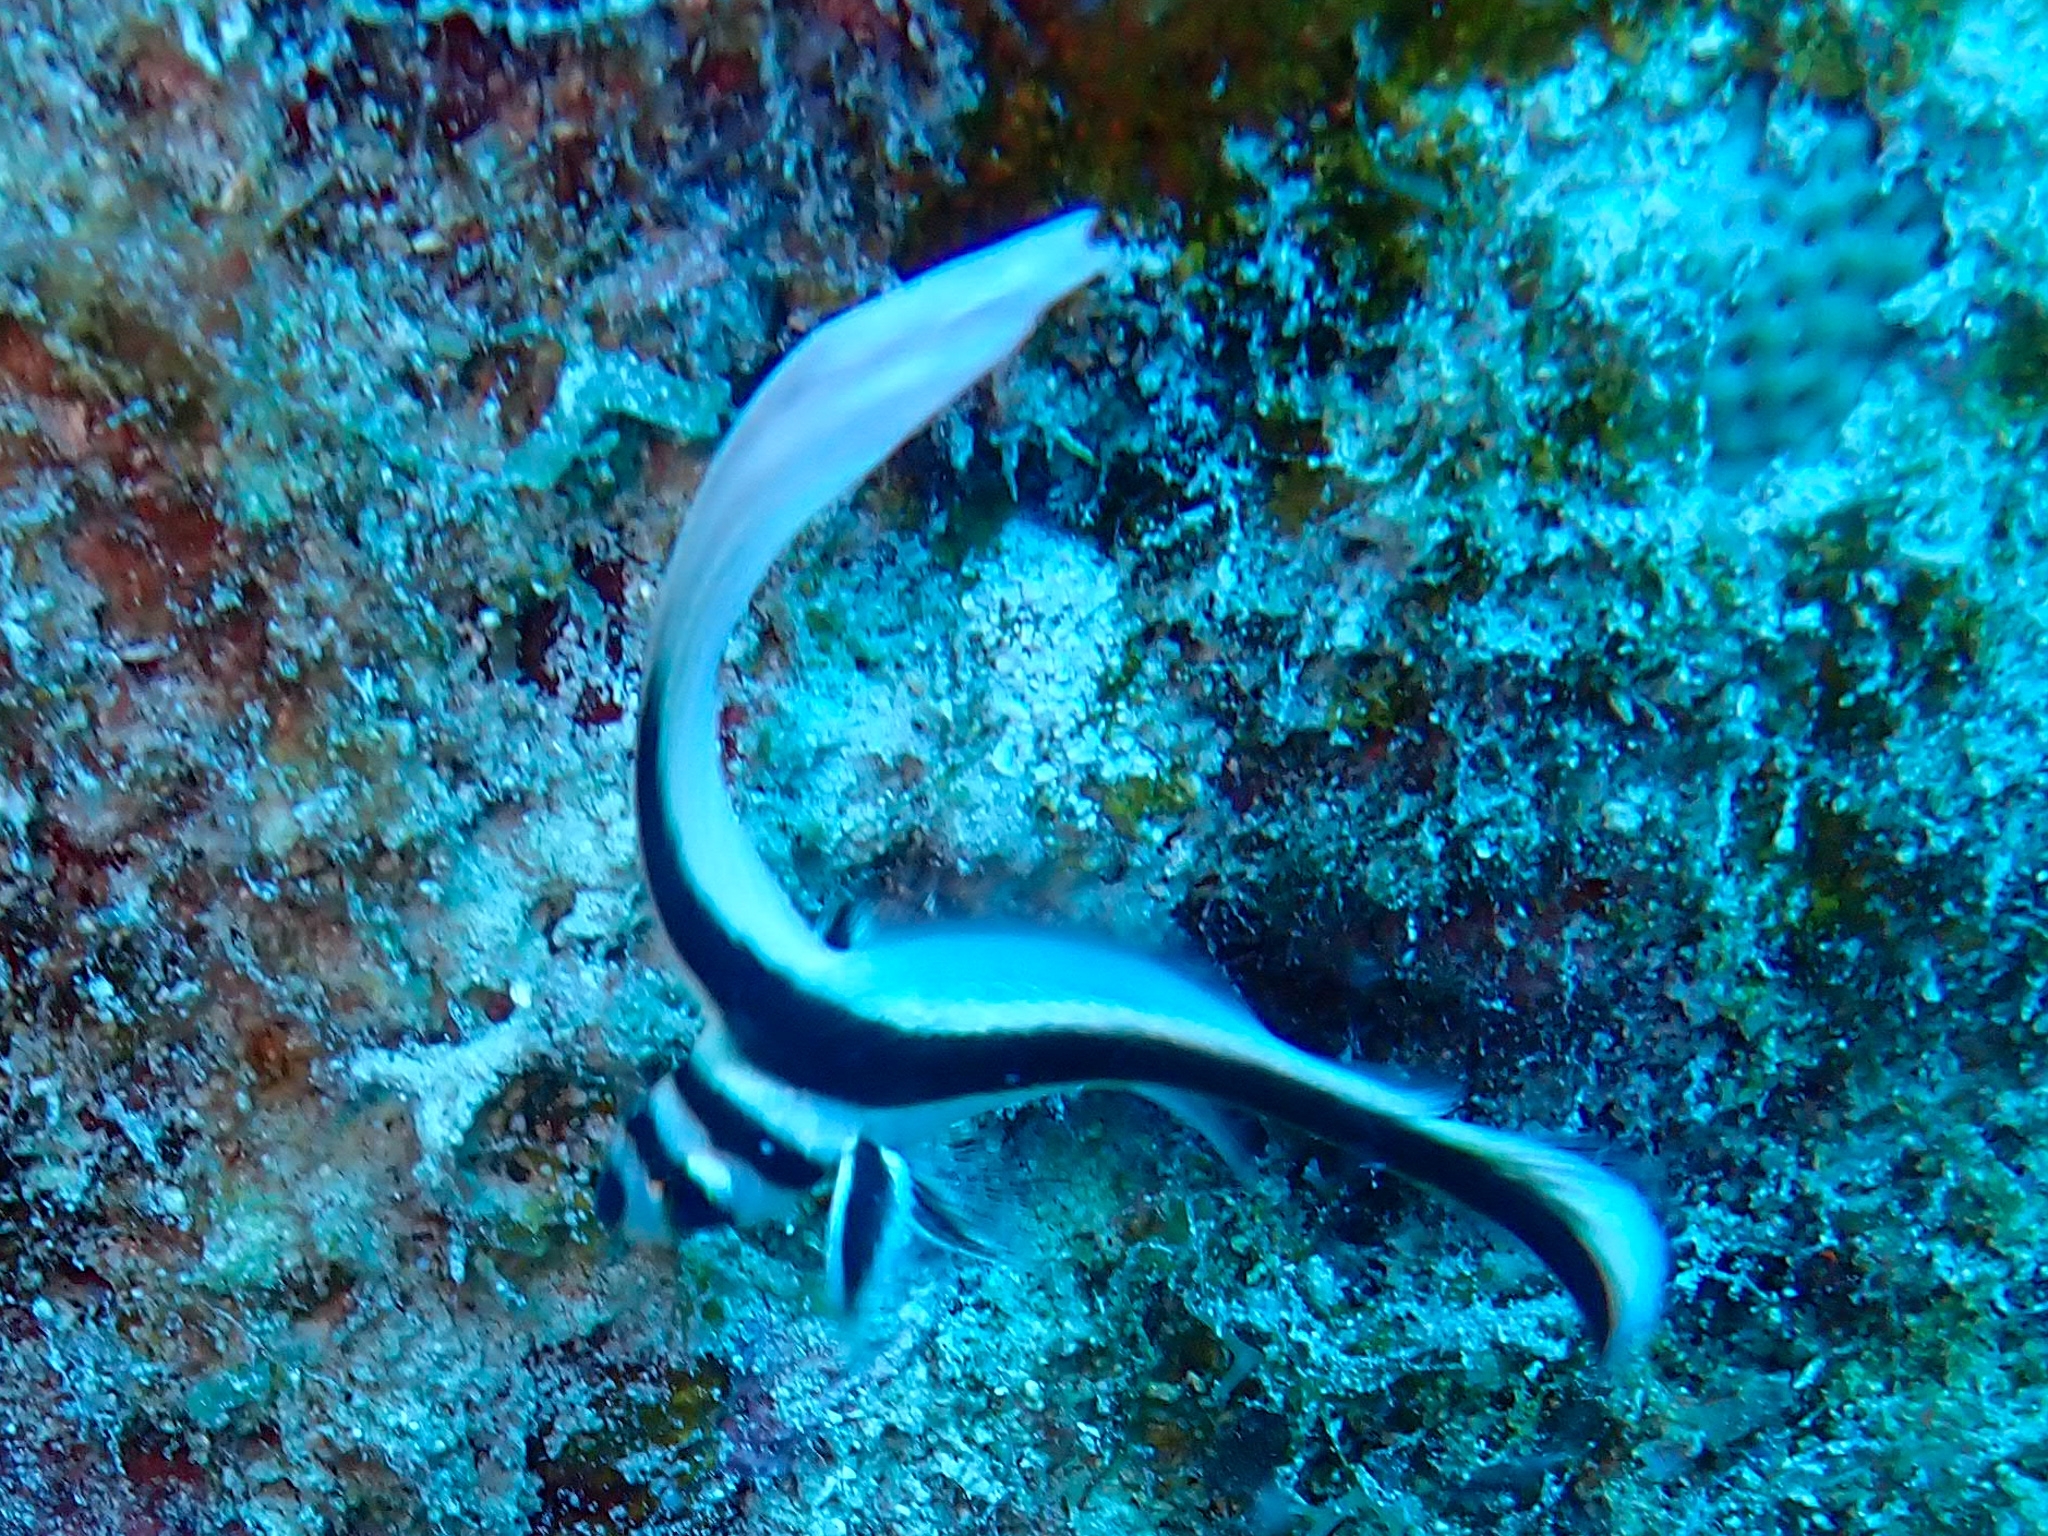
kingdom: Animalia
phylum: Chordata
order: Perciformes
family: Sciaenidae
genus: Equetus
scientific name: Equetus punctatus
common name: Spotted drum
